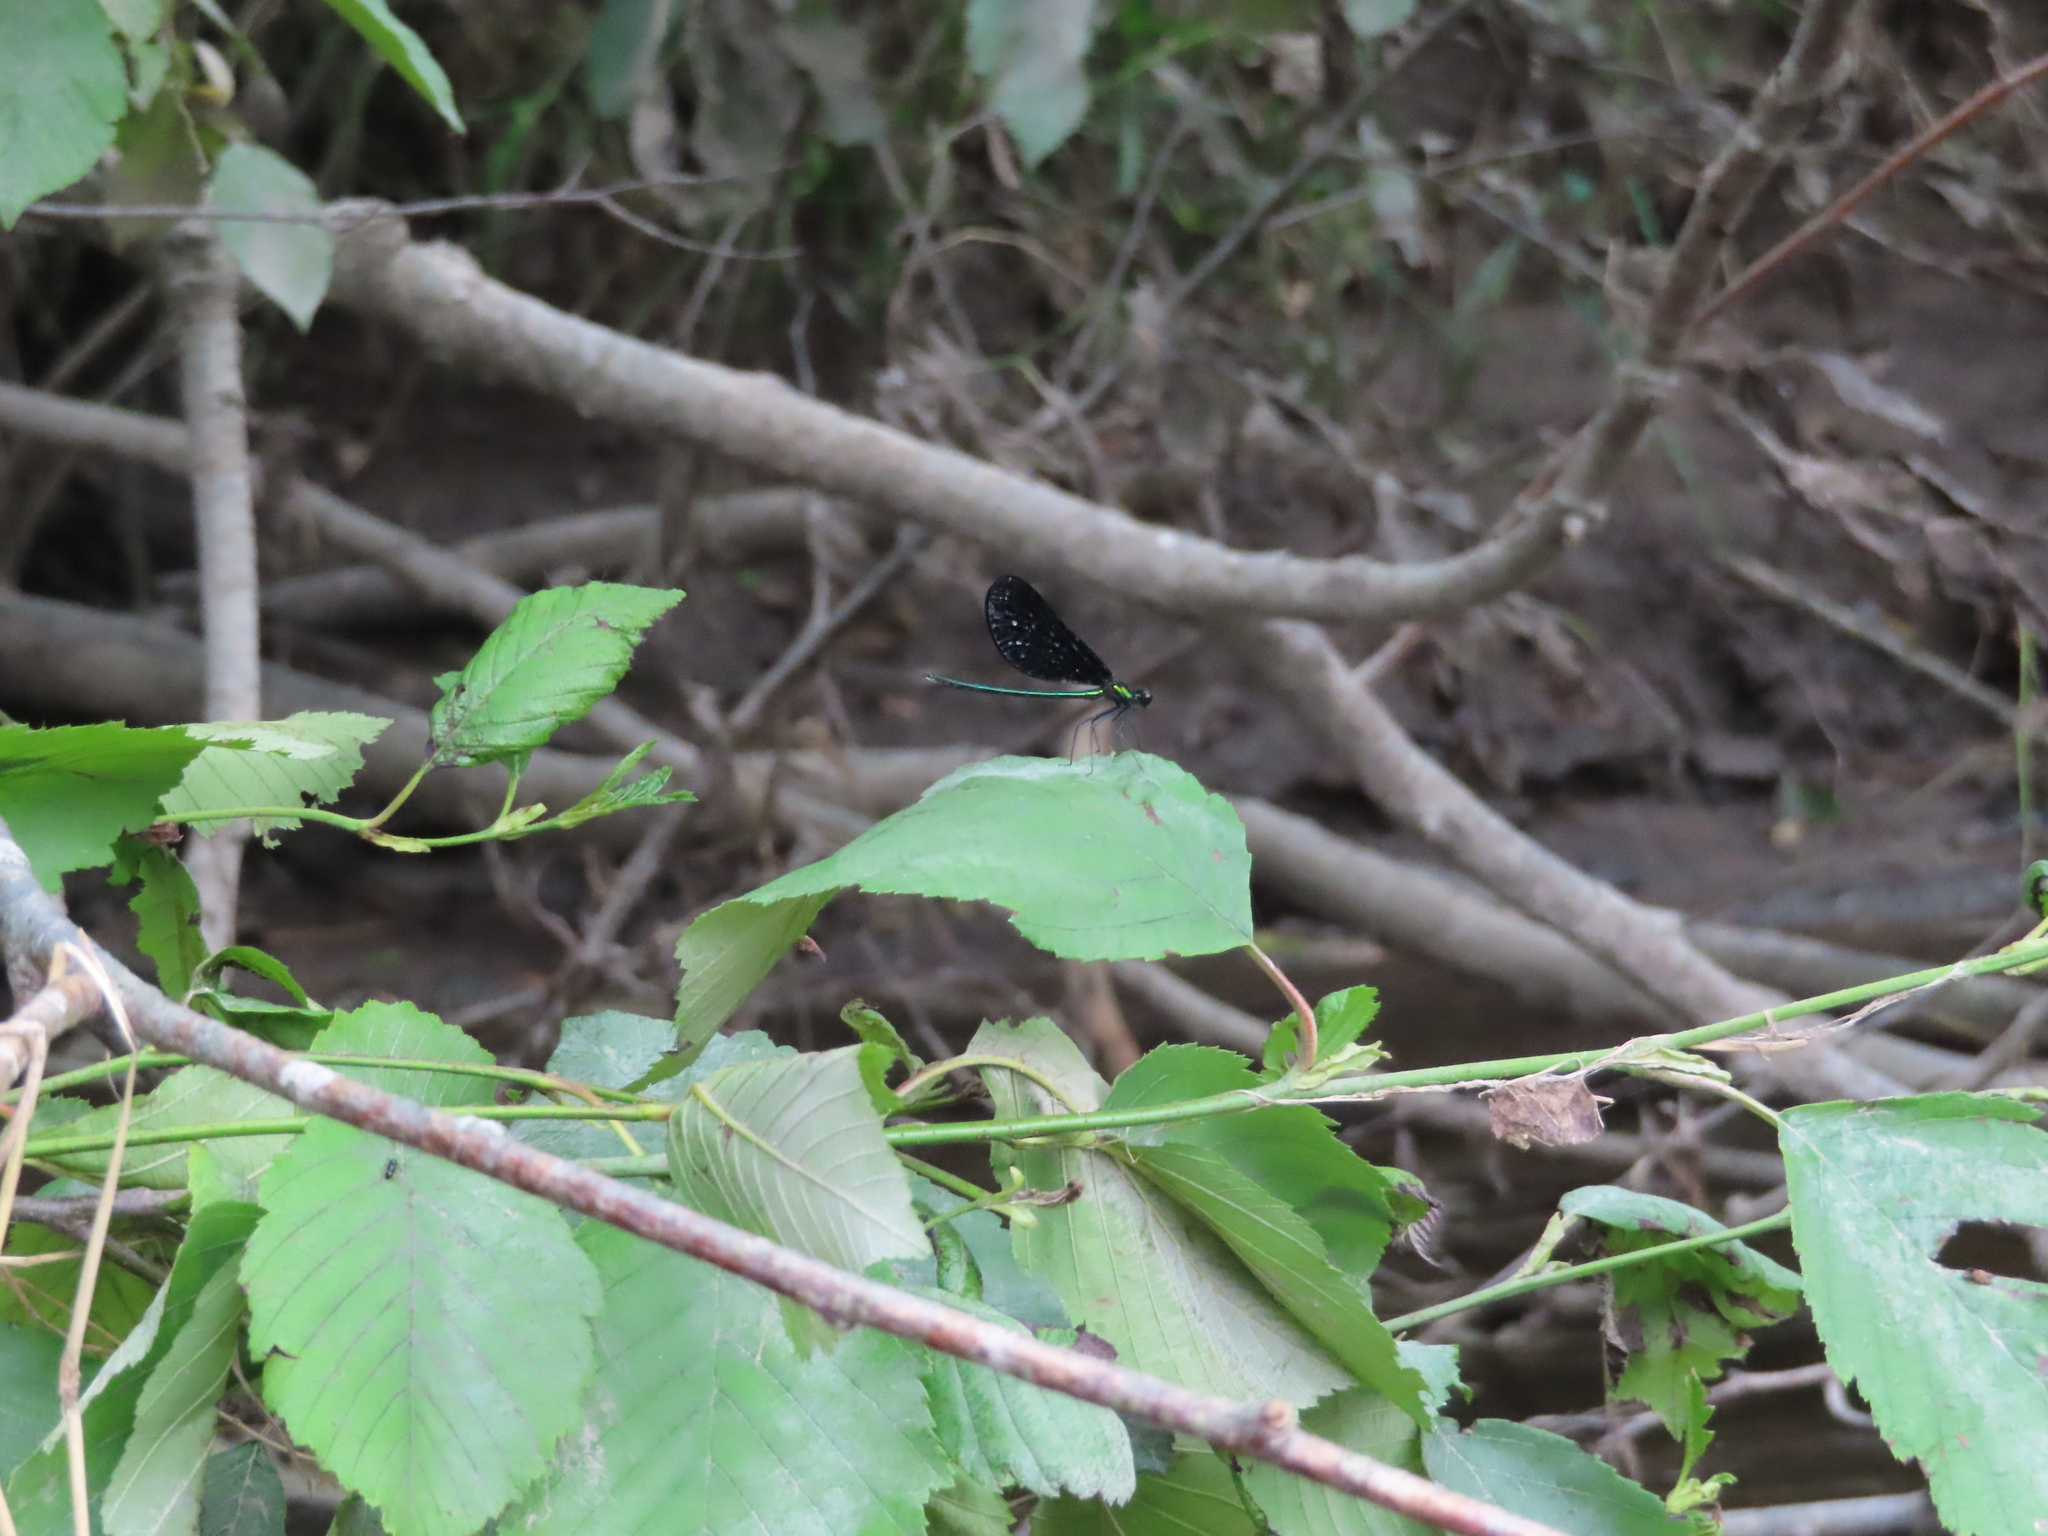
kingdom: Animalia
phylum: Arthropoda
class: Insecta
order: Odonata
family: Calopterygidae
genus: Calopteryx
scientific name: Calopteryx maculata
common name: Ebony jewelwing
